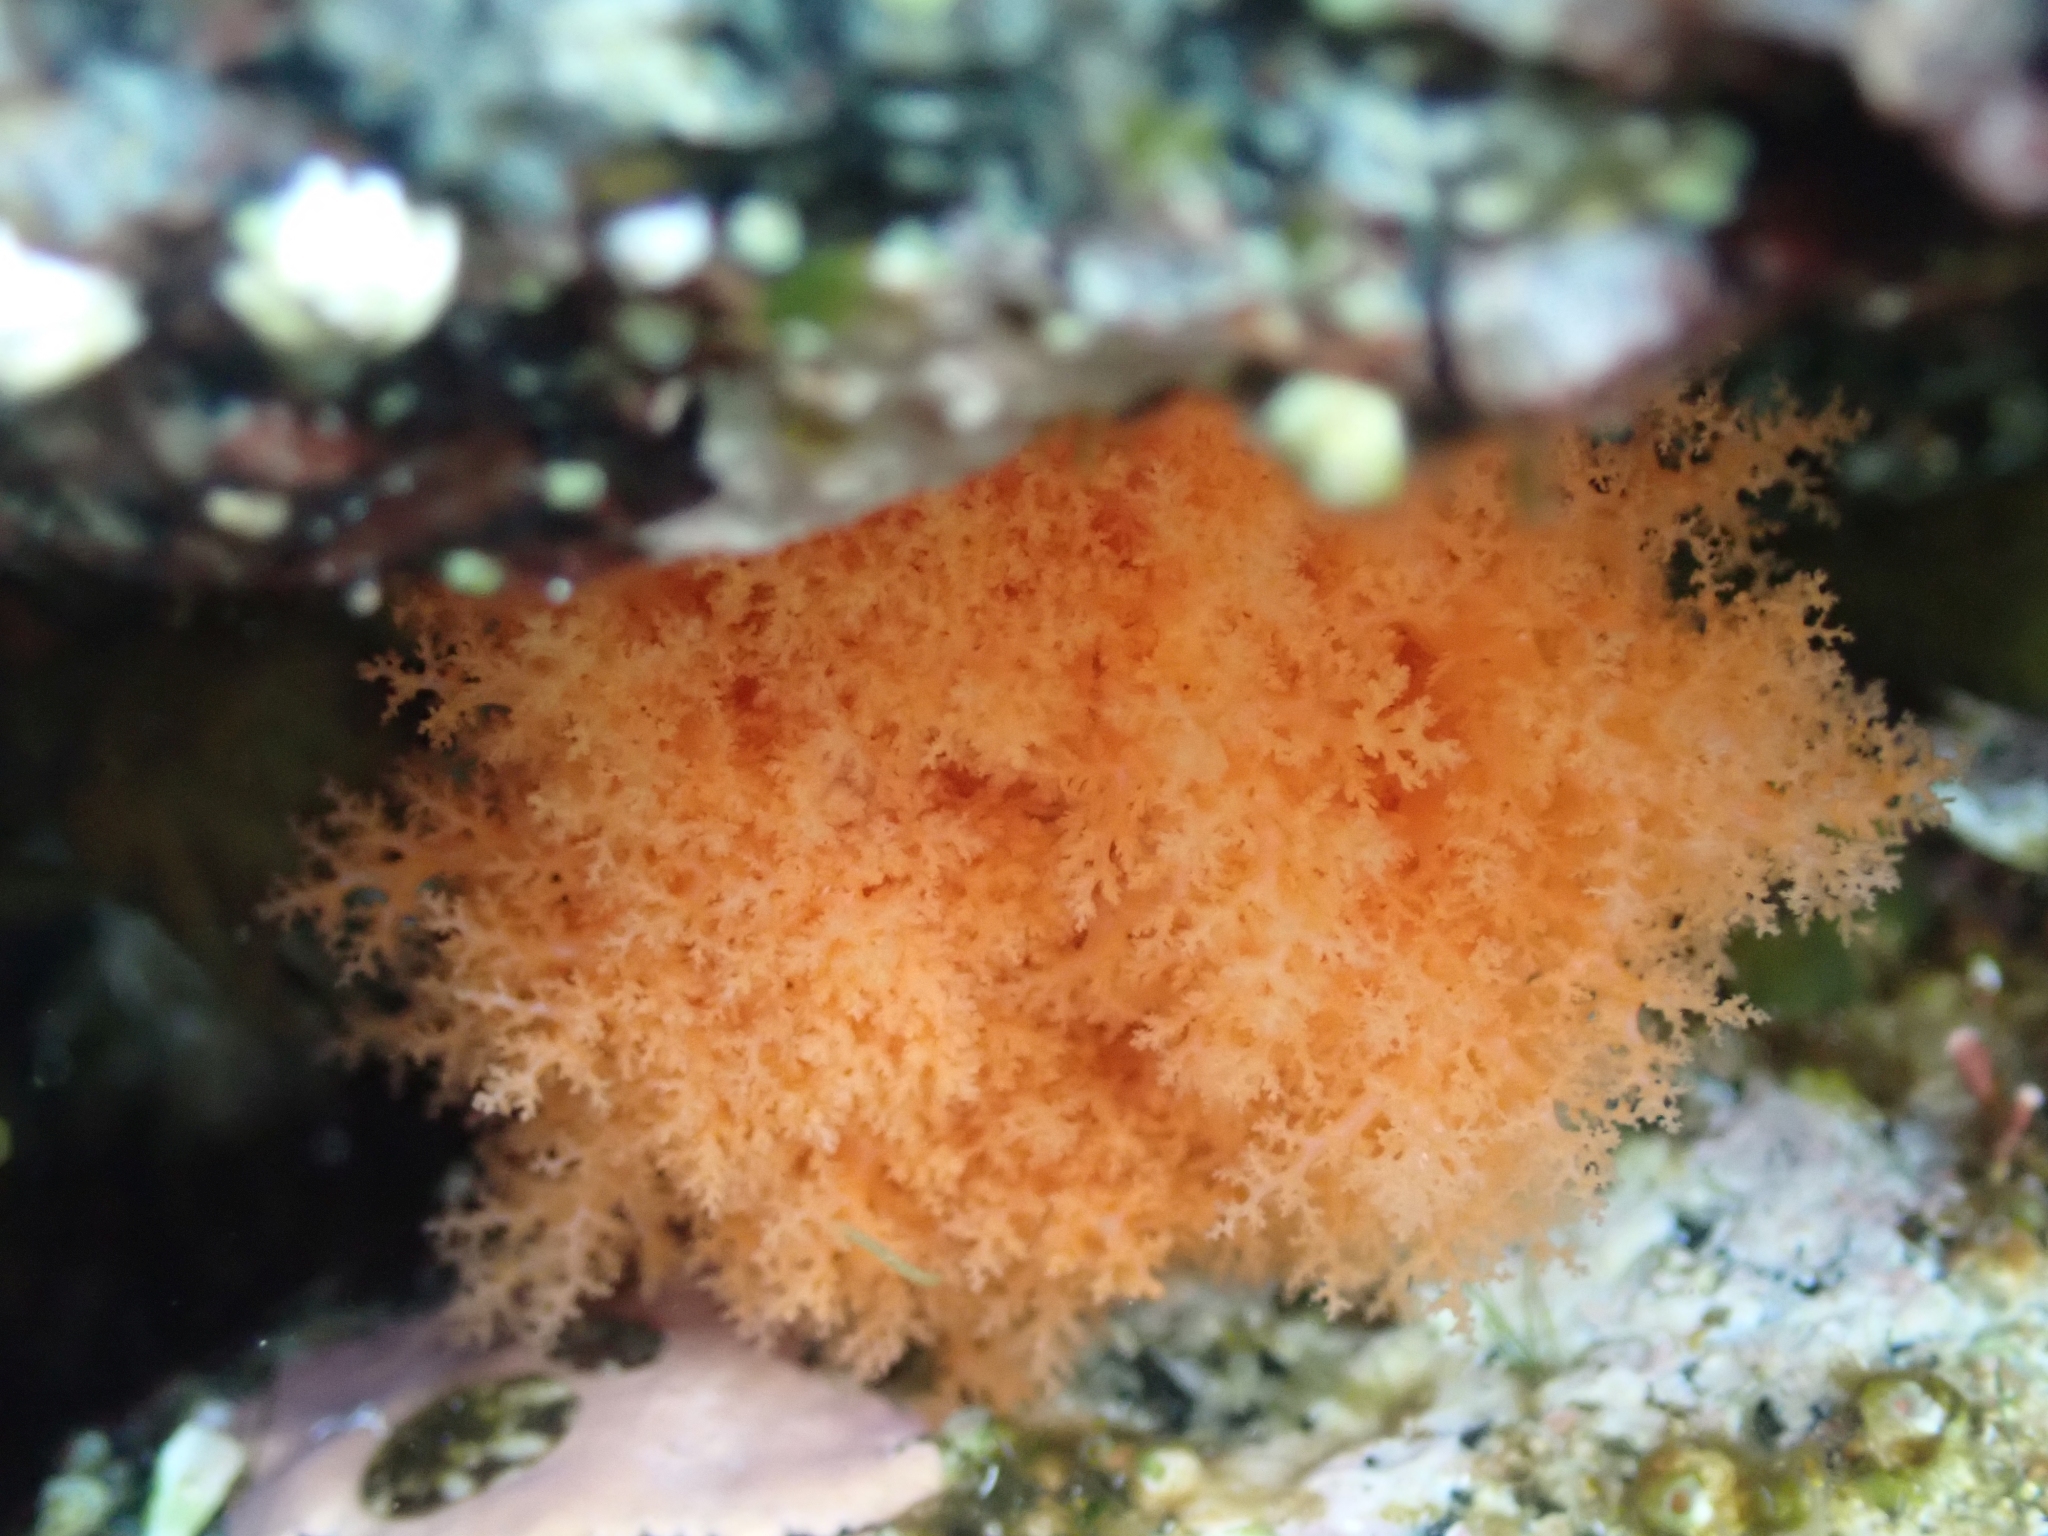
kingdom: Animalia
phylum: Echinodermata
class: Holothuroidea
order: Dendrochirotida
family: Cucumariidae
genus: Cucumaria
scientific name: Cucumaria miniata
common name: Orange sea cucumber
